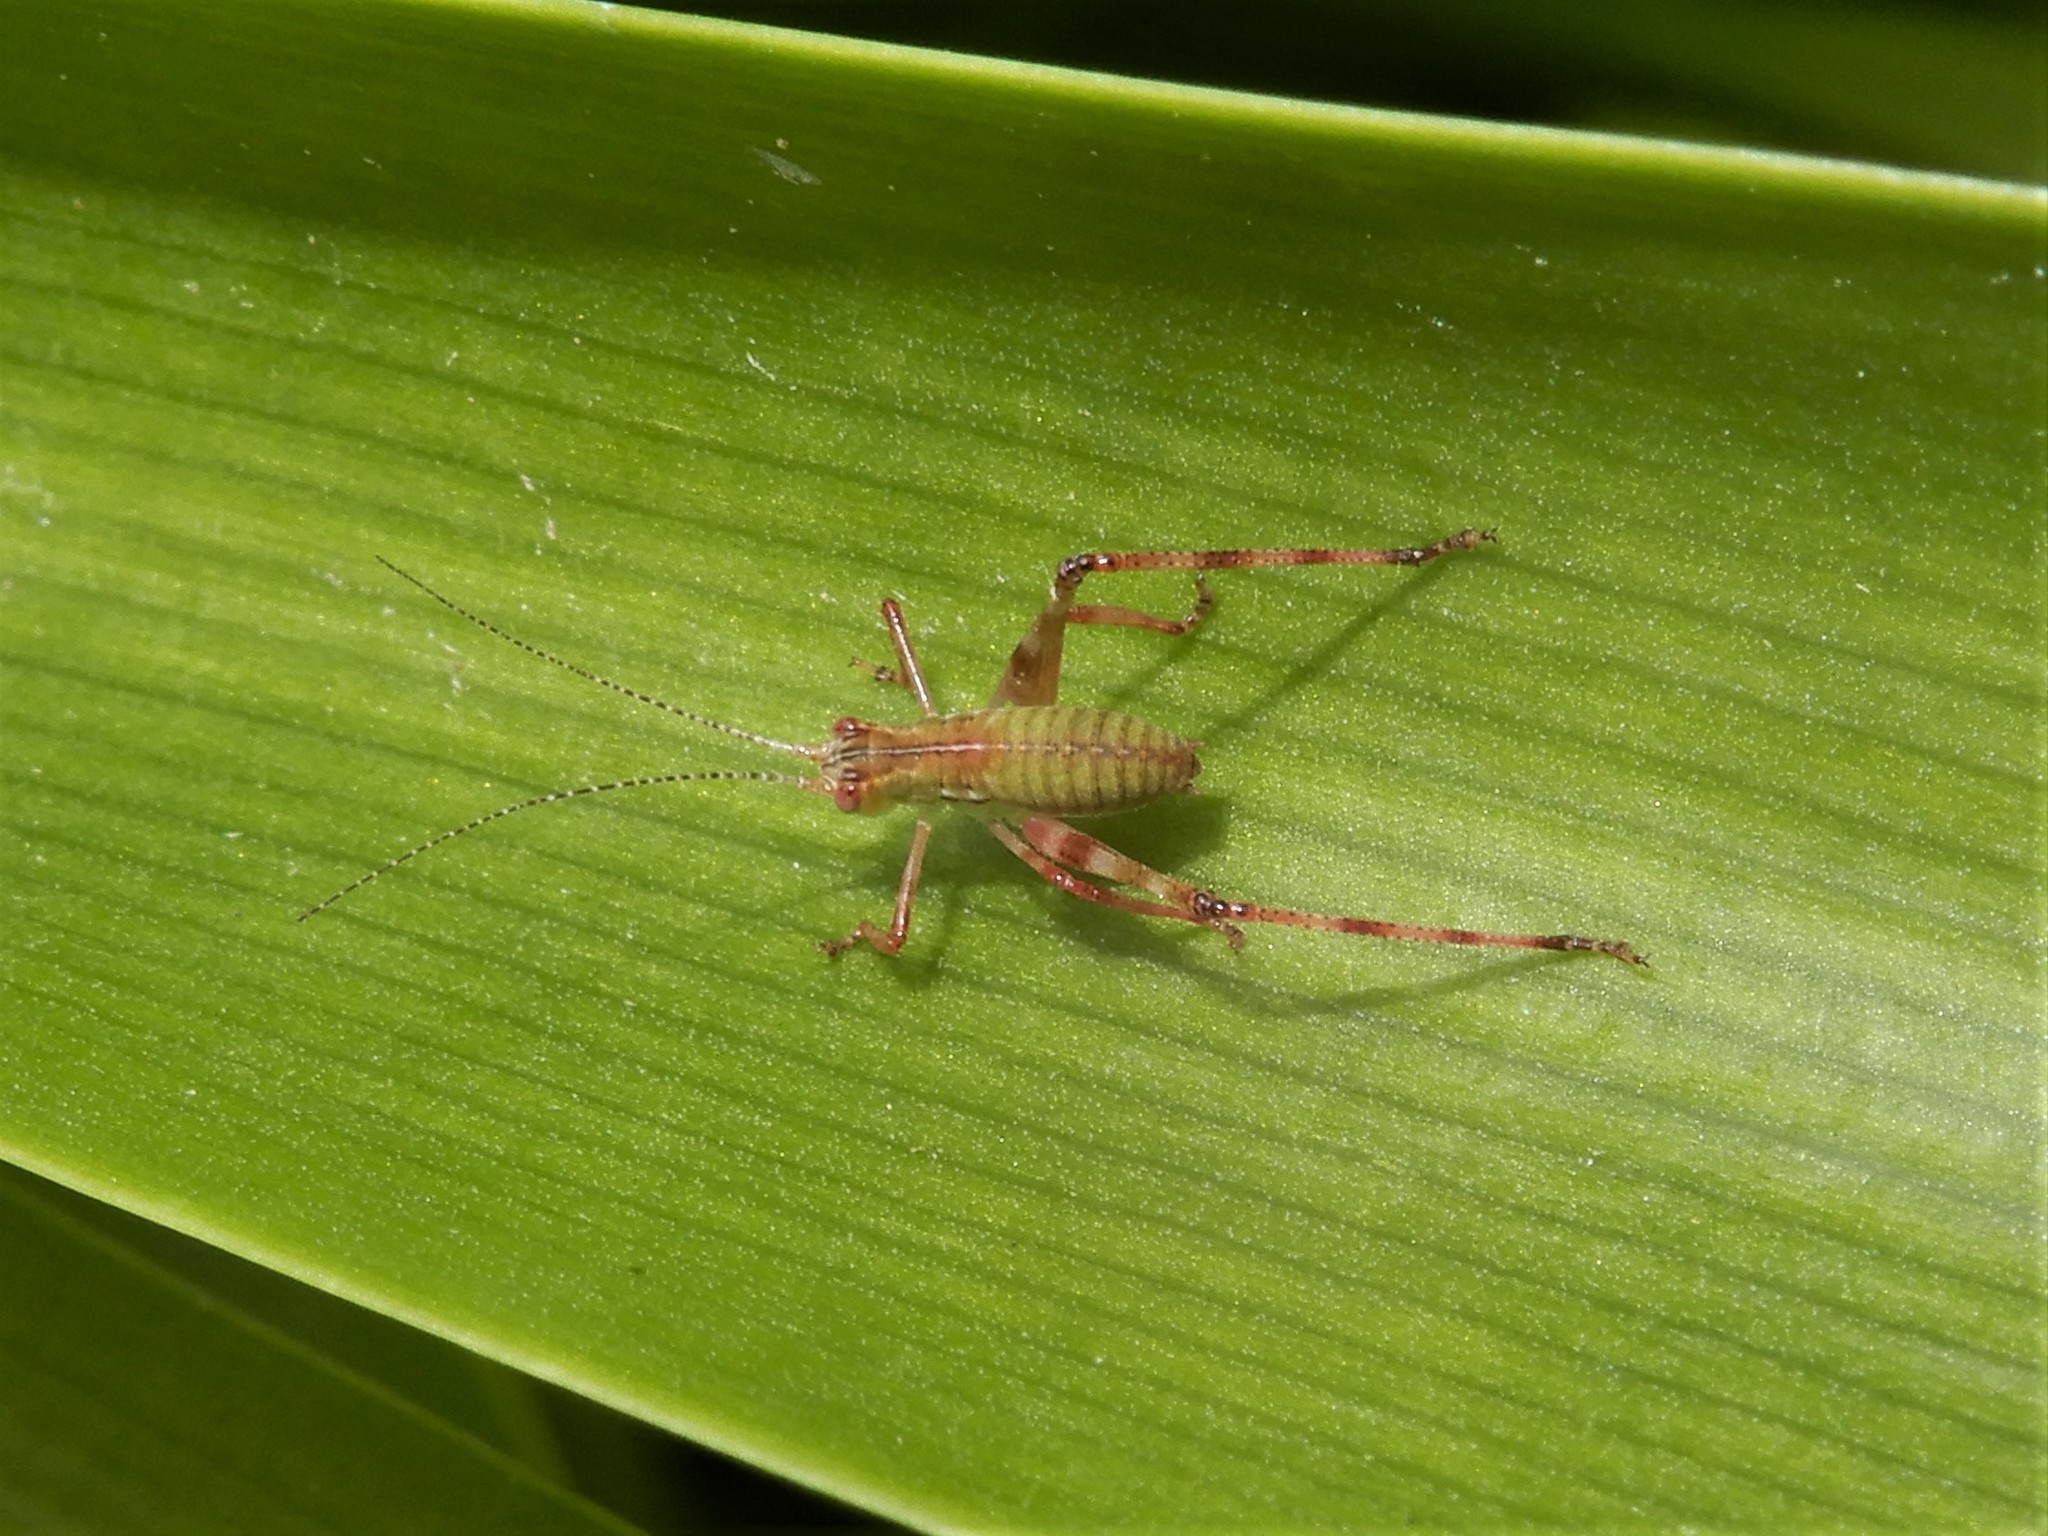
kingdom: Animalia
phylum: Arthropoda
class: Insecta
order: Orthoptera
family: Tettigoniidae
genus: Caedicia
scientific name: Caedicia simplex
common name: Common garden katydid
